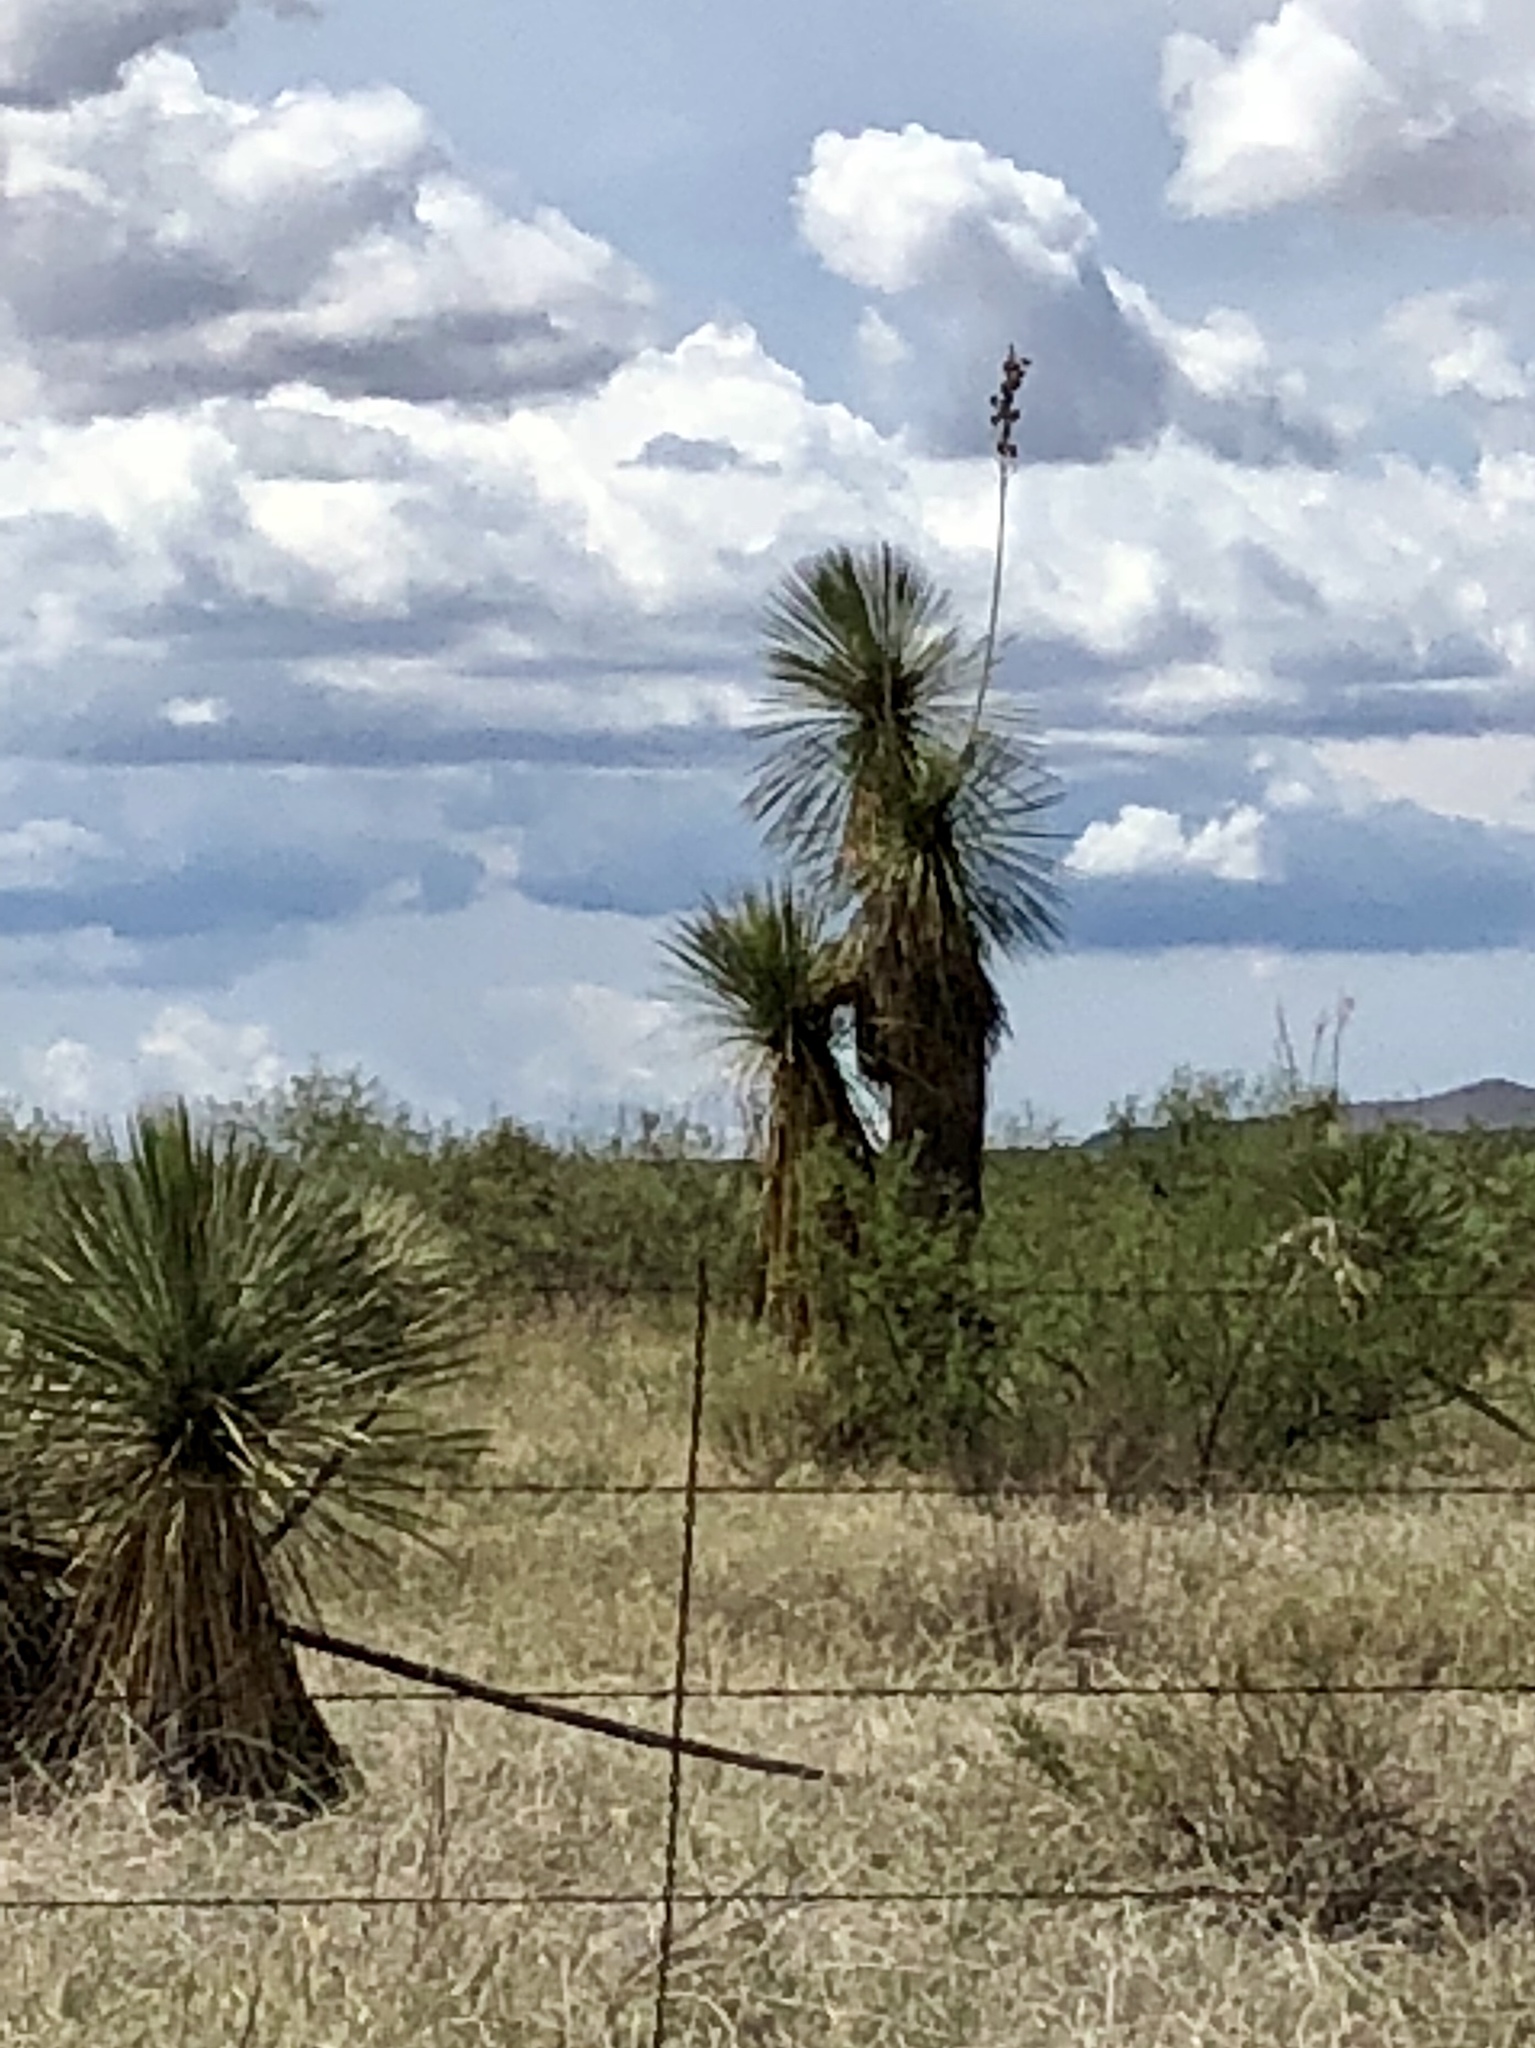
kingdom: Plantae
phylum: Tracheophyta
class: Liliopsida
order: Asparagales
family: Asparagaceae
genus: Yucca
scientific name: Yucca elata
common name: Palmella
